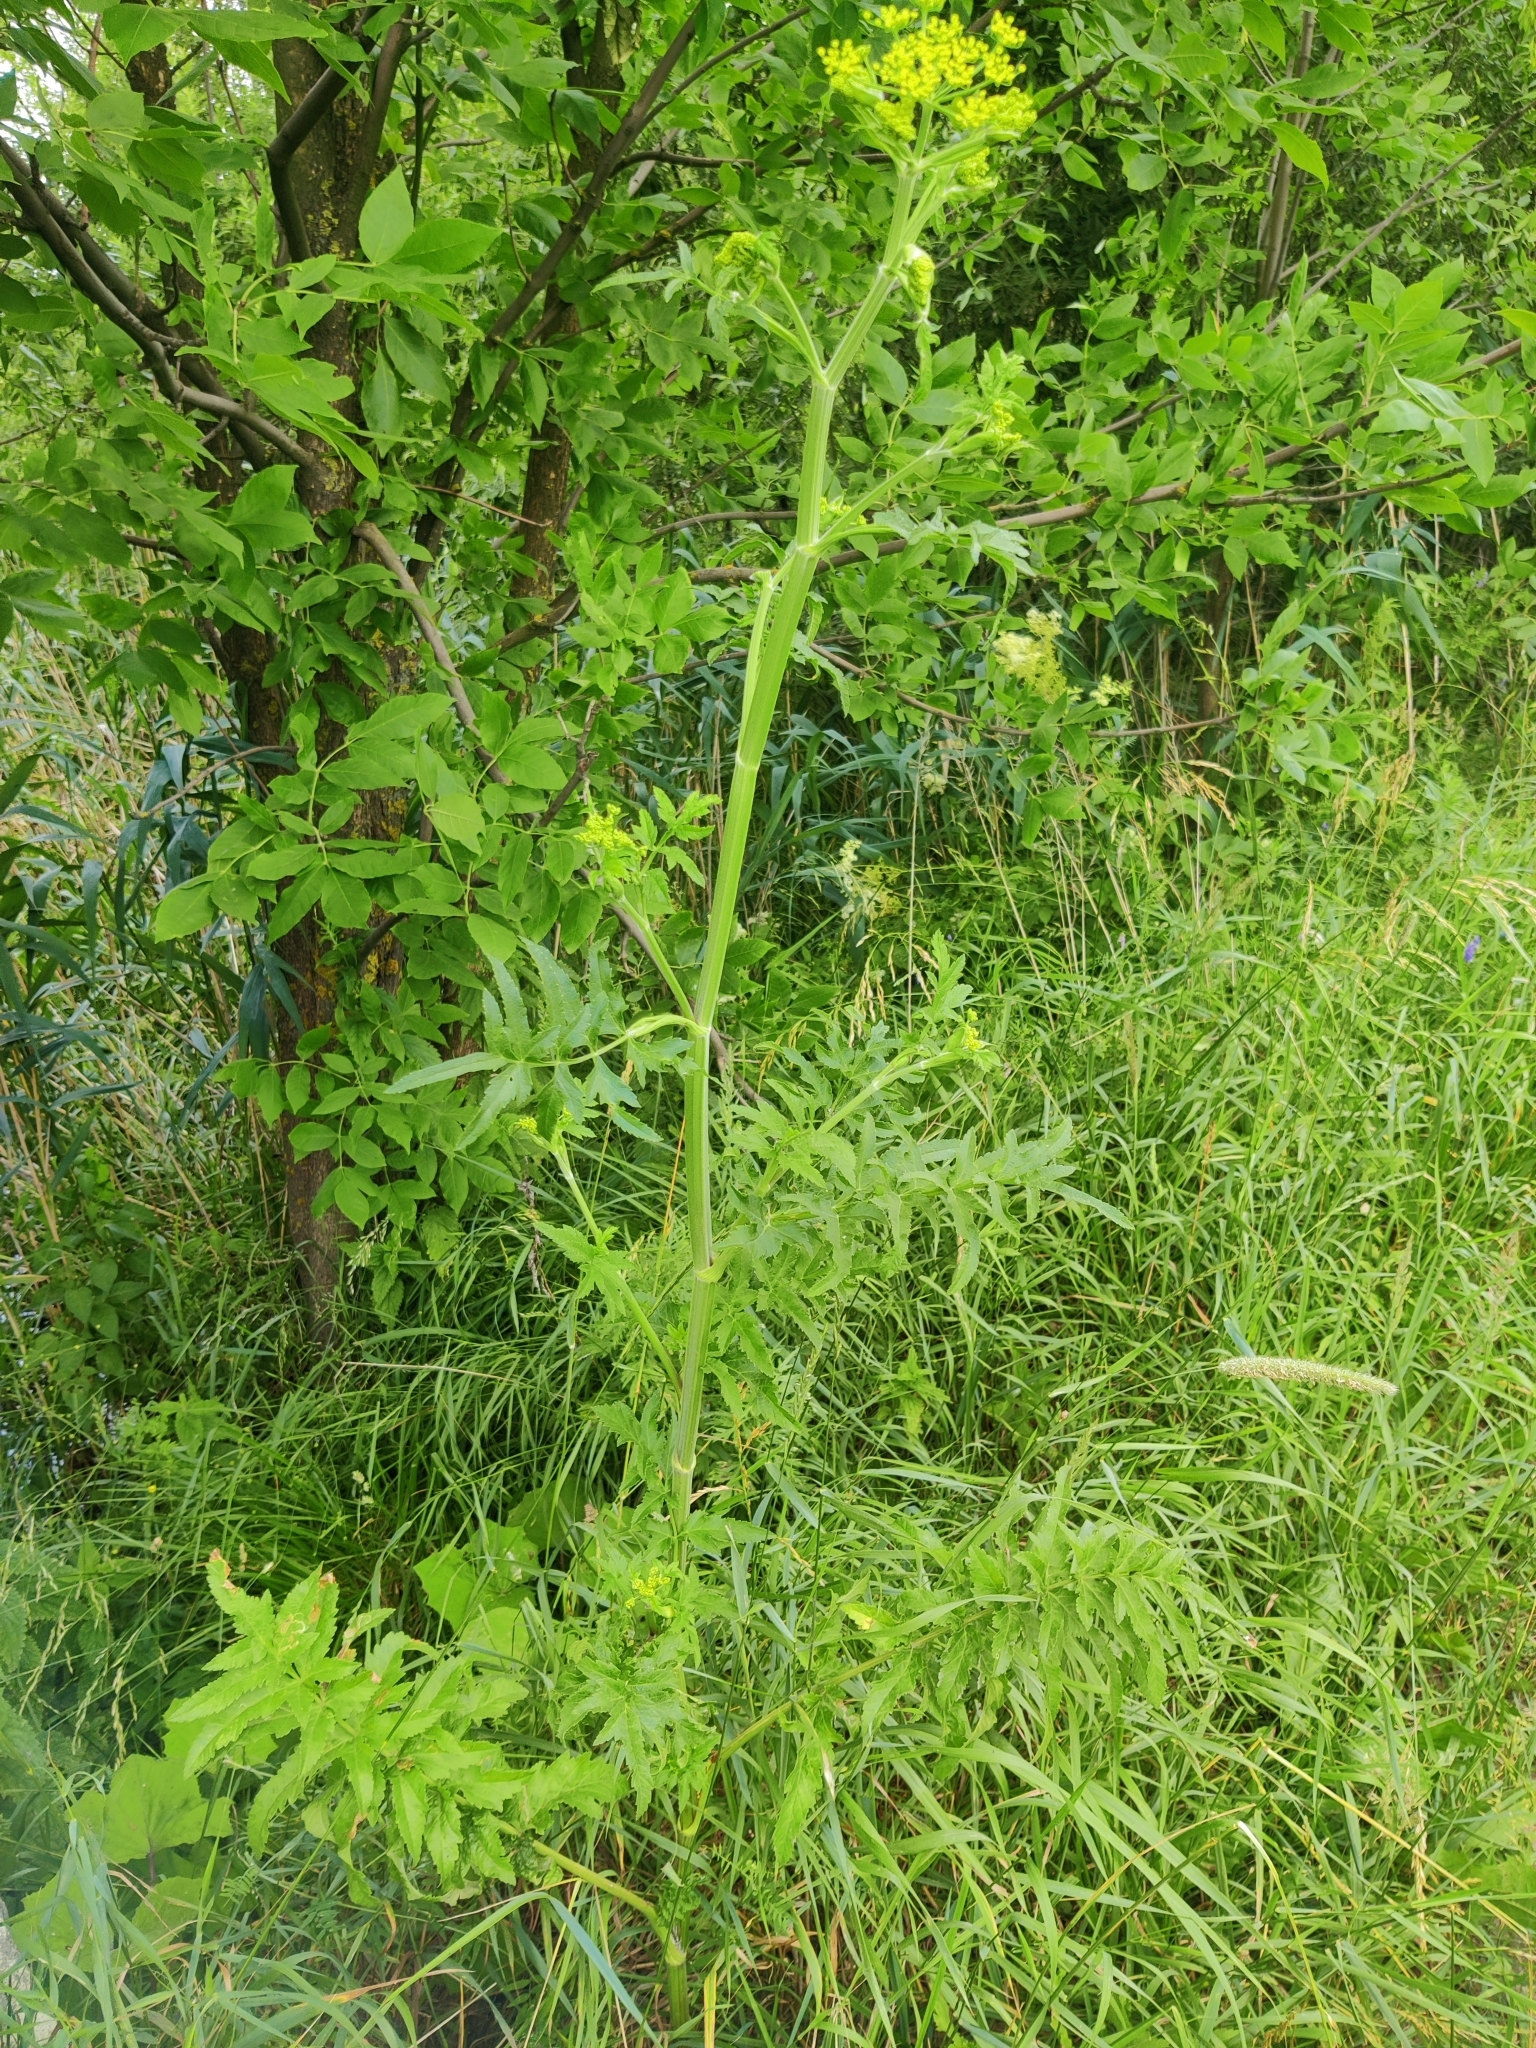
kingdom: Plantae
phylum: Tracheophyta
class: Magnoliopsida
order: Apiales
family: Apiaceae
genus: Pastinaca
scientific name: Pastinaca sativa
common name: Wild parsnip
